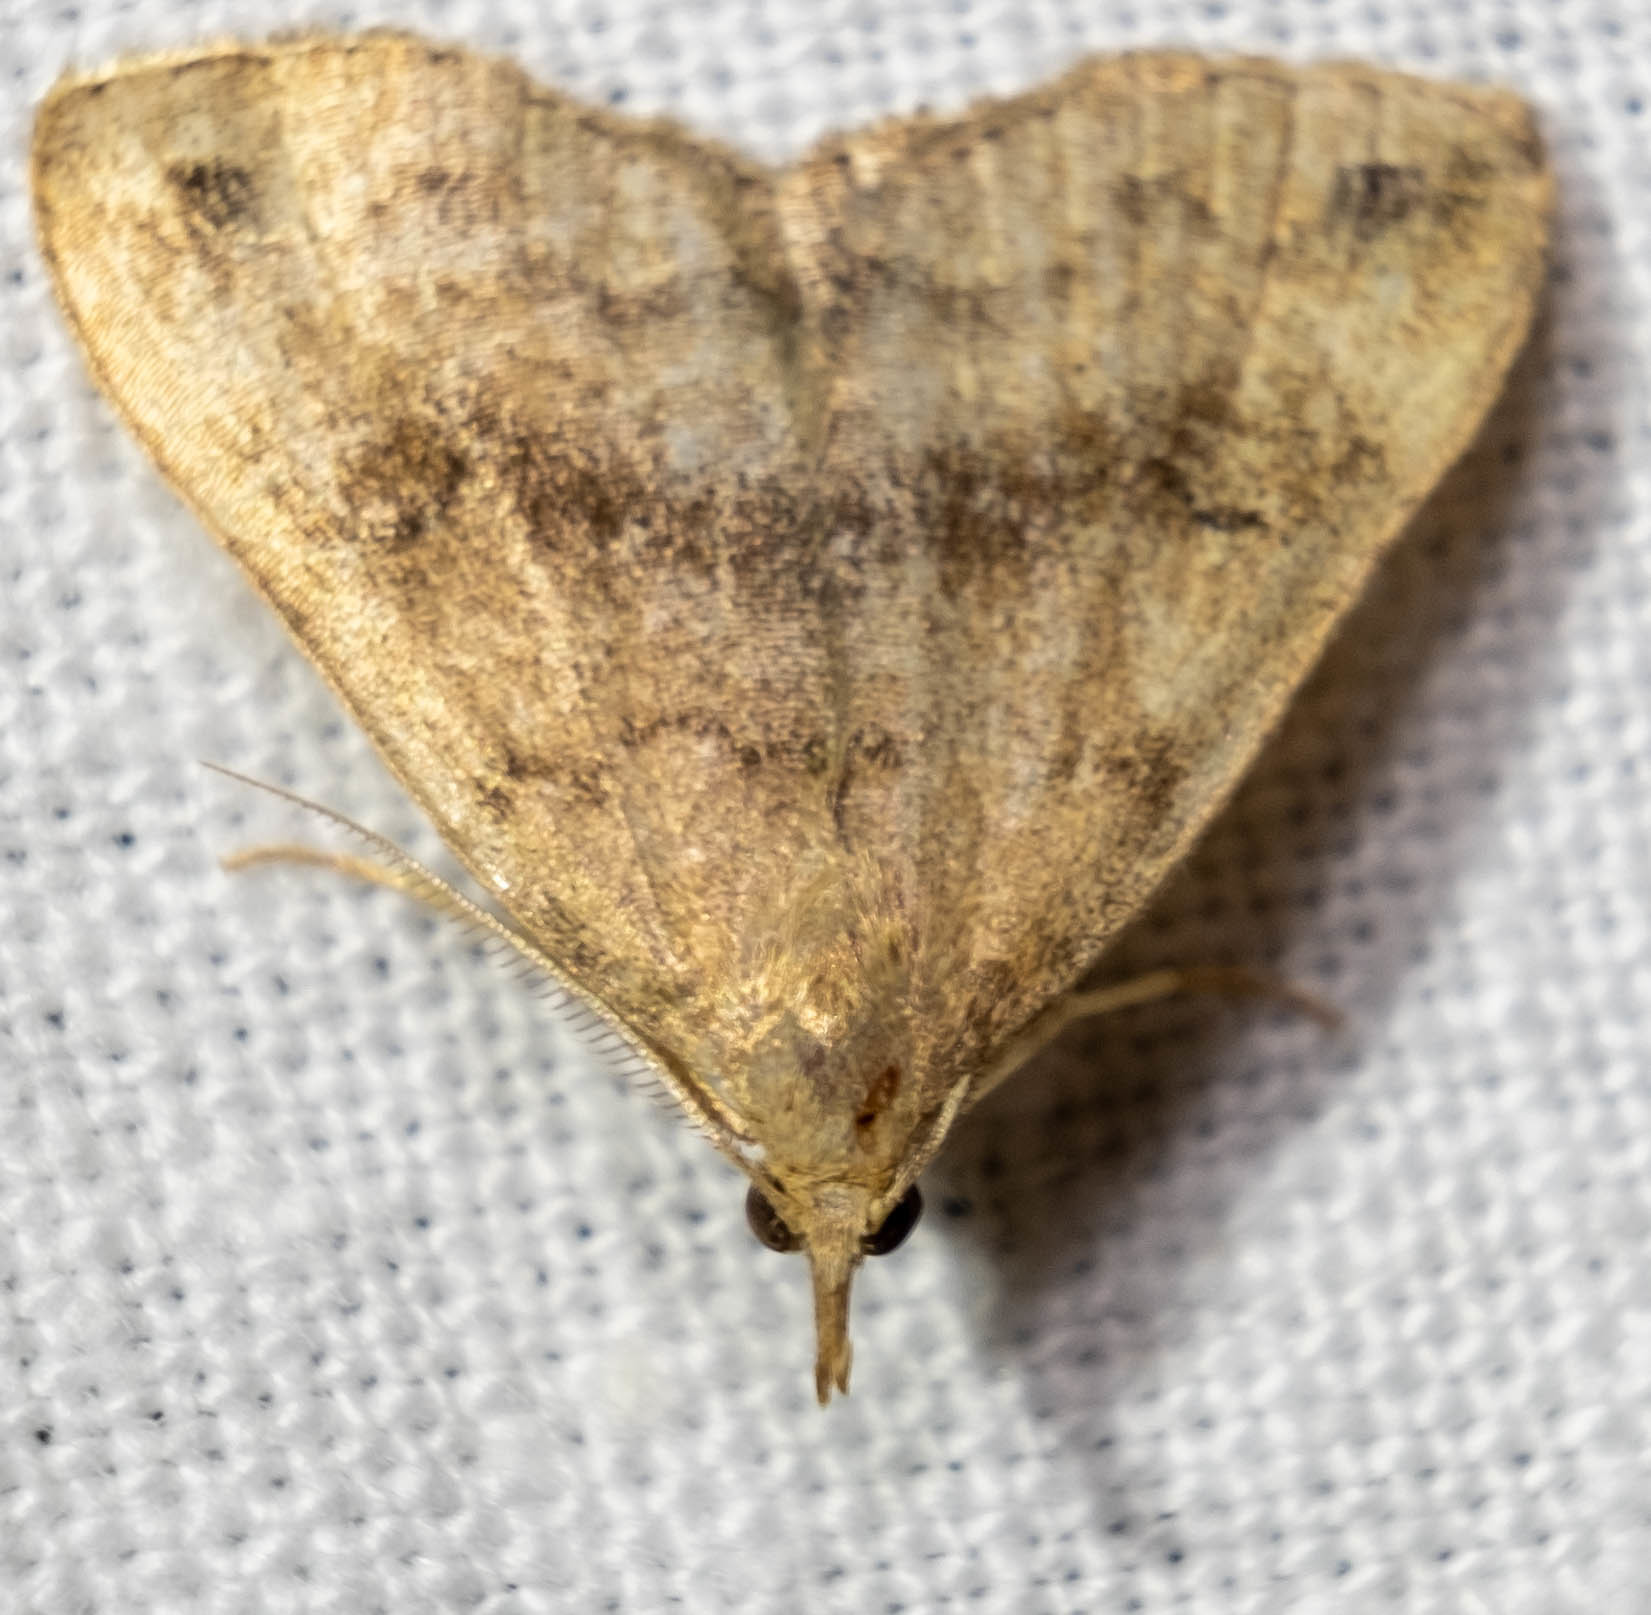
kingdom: Animalia
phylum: Arthropoda
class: Insecta
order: Lepidoptera
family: Erebidae
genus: Phalaenostola
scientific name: Phalaenostola eumelusalis
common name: Dark phalaenostola moth
